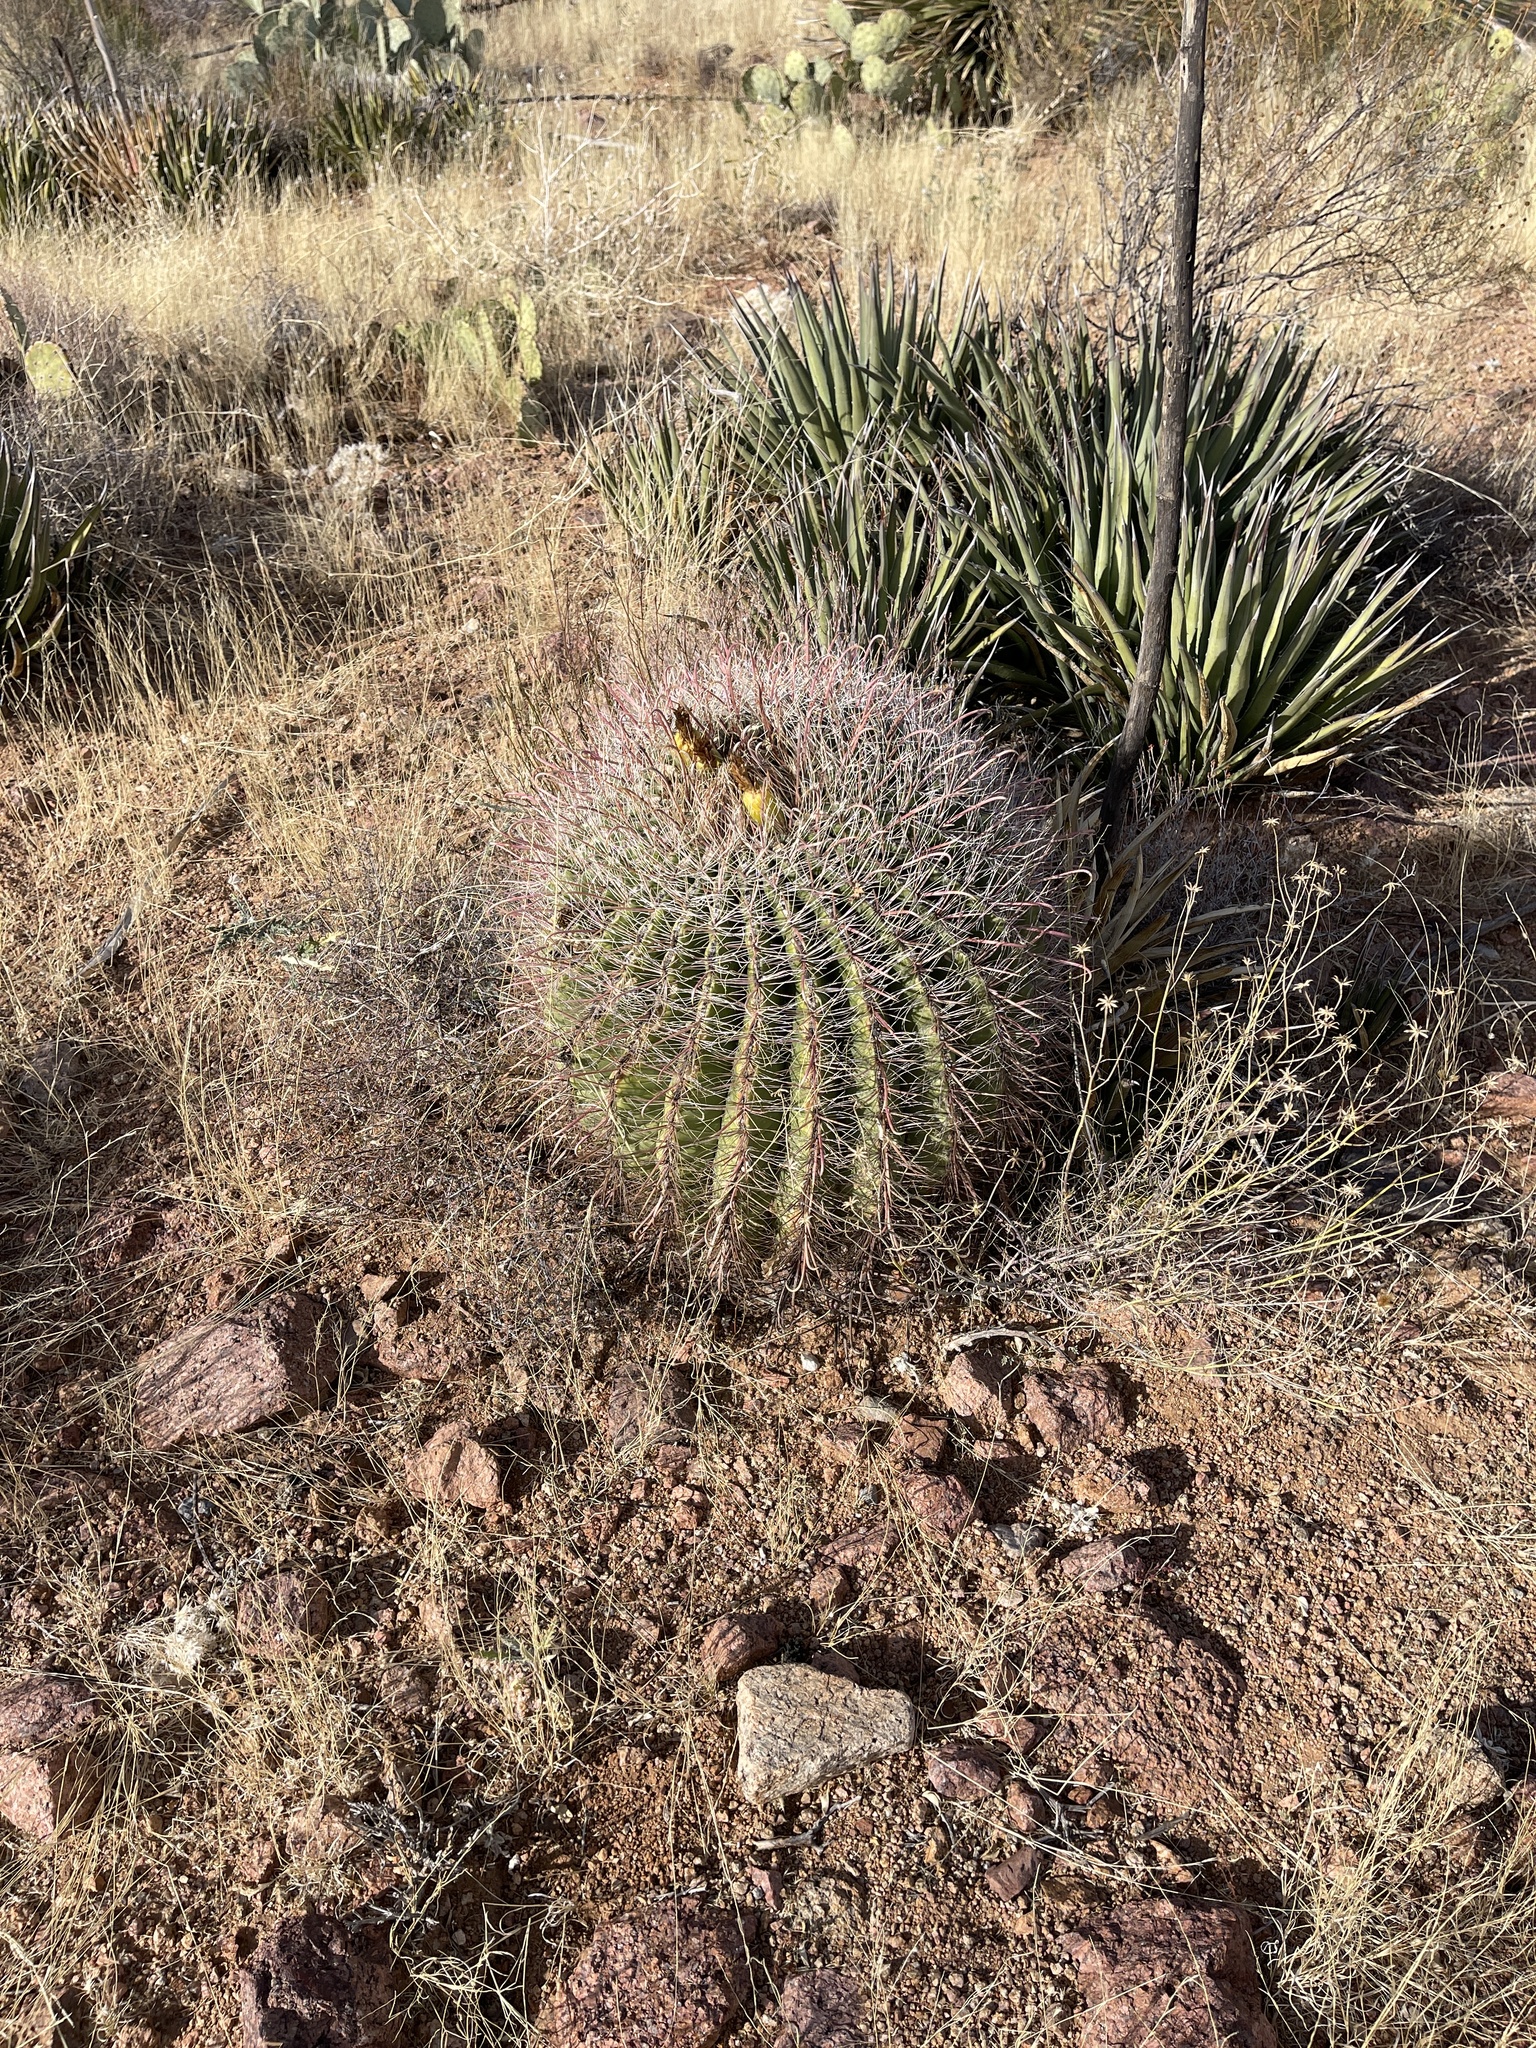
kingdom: Plantae
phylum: Tracheophyta
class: Magnoliopsida
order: Caryophyllales
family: Cactaceae
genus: Ferocactus
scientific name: Ferocactus wislizeni
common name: Candy barrel cactus
